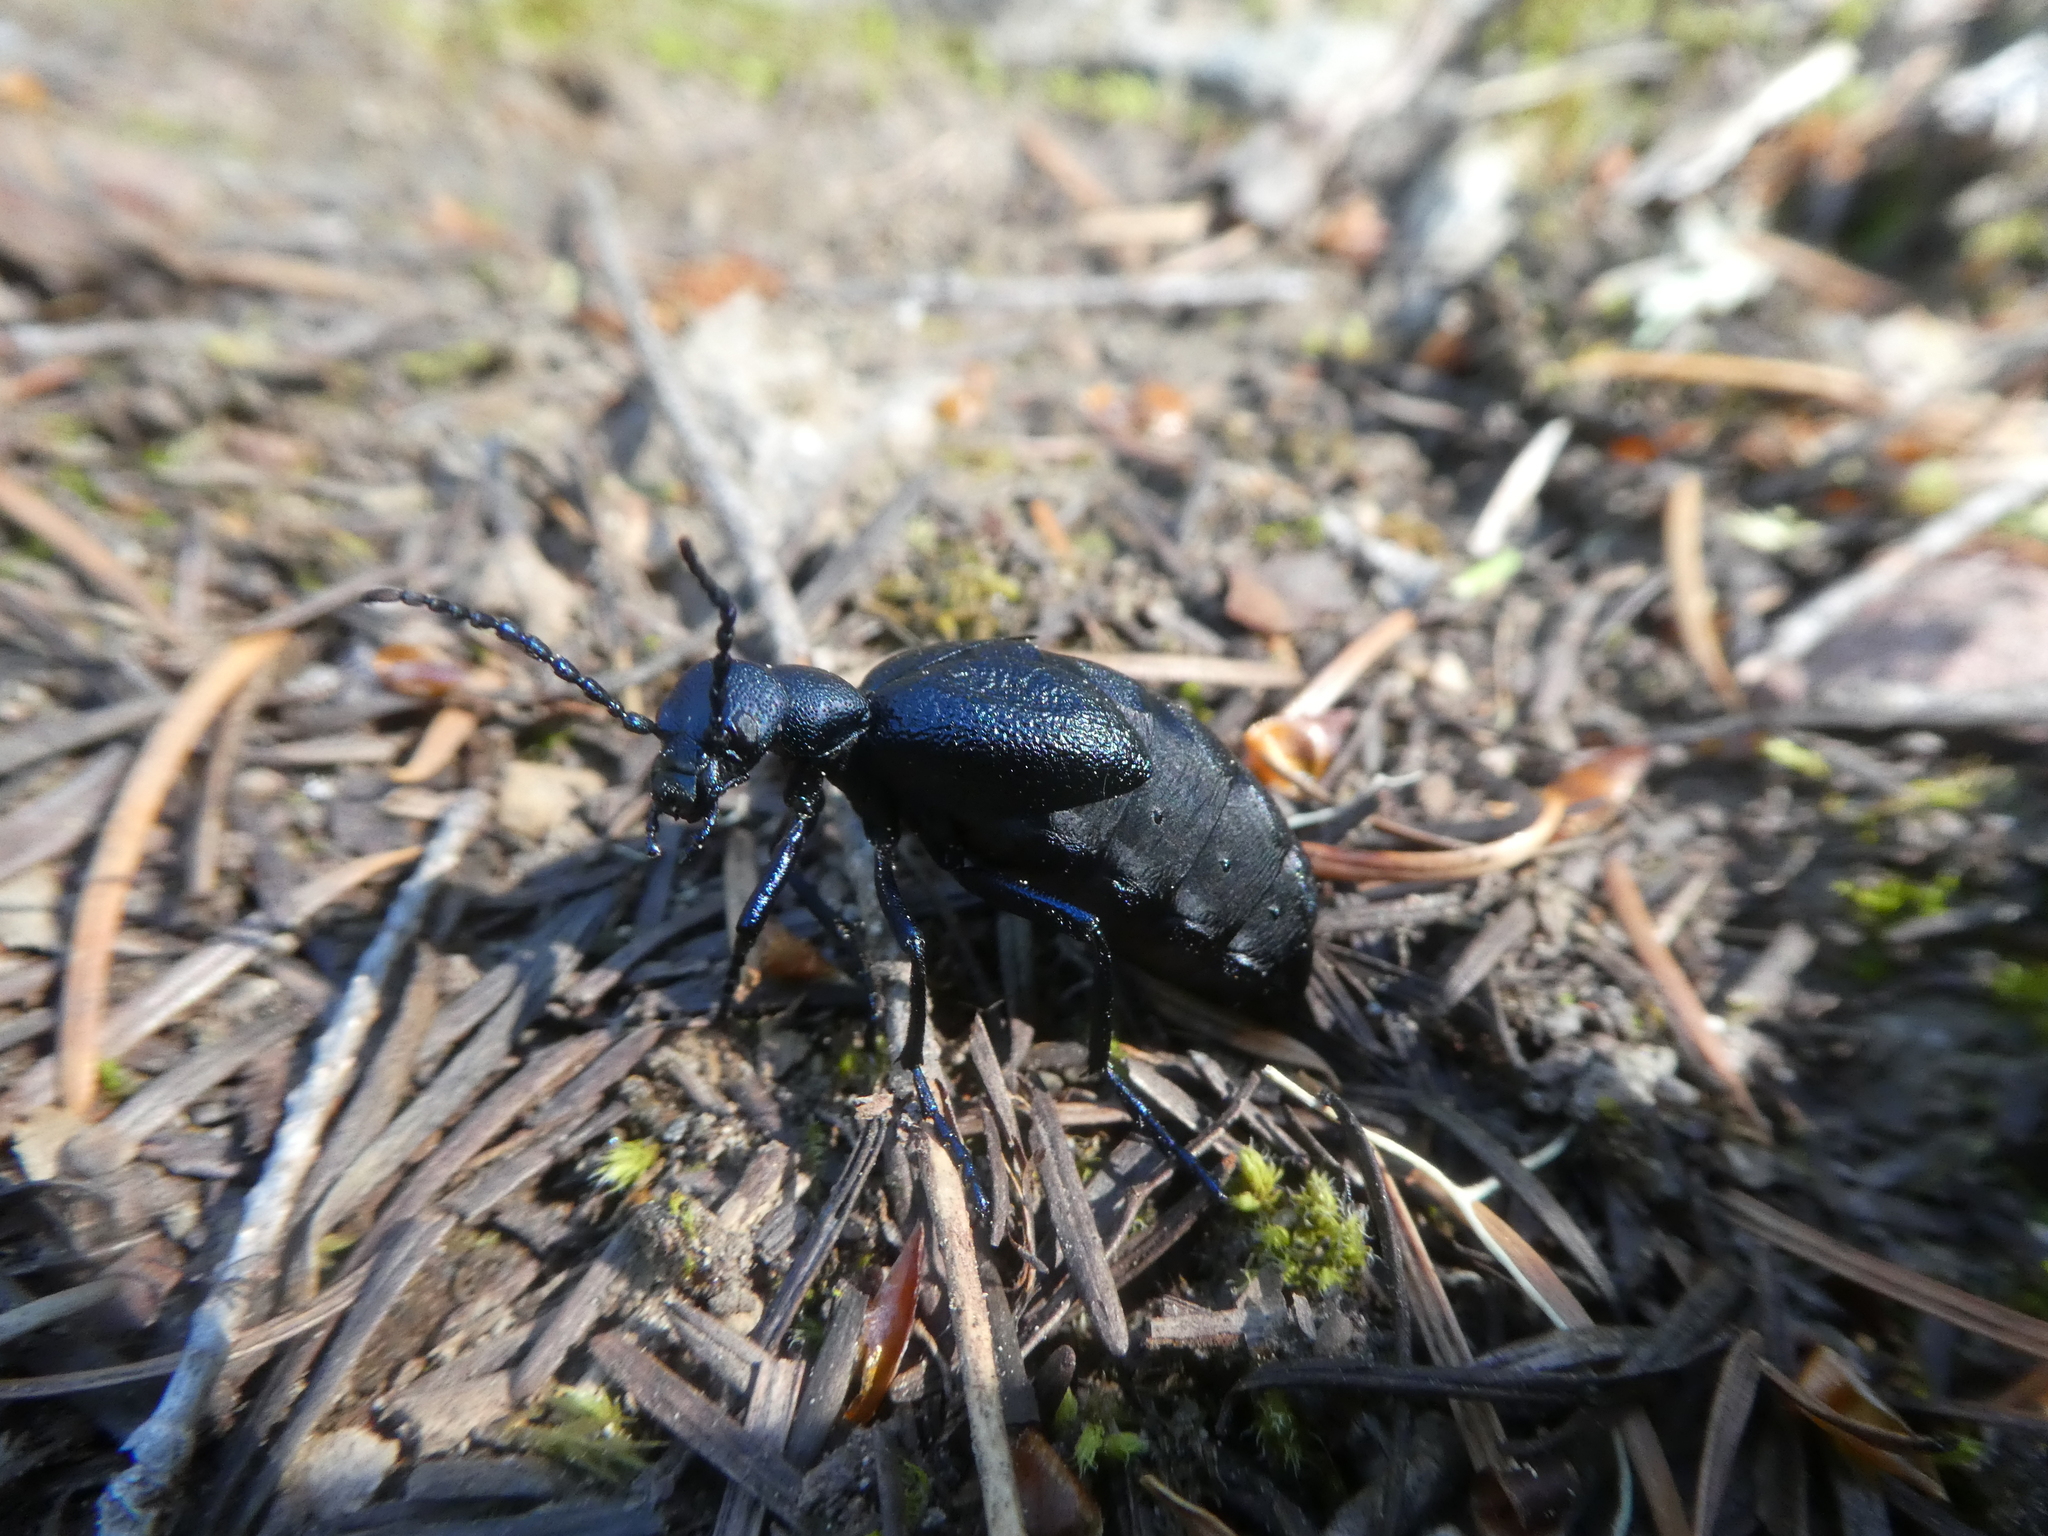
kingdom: Animalia
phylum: Arthropoda
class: Insecta
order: Coleoptera
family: Meloidae
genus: Meloe
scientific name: Meloe angusticollis
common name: Short-winged blister beetle
